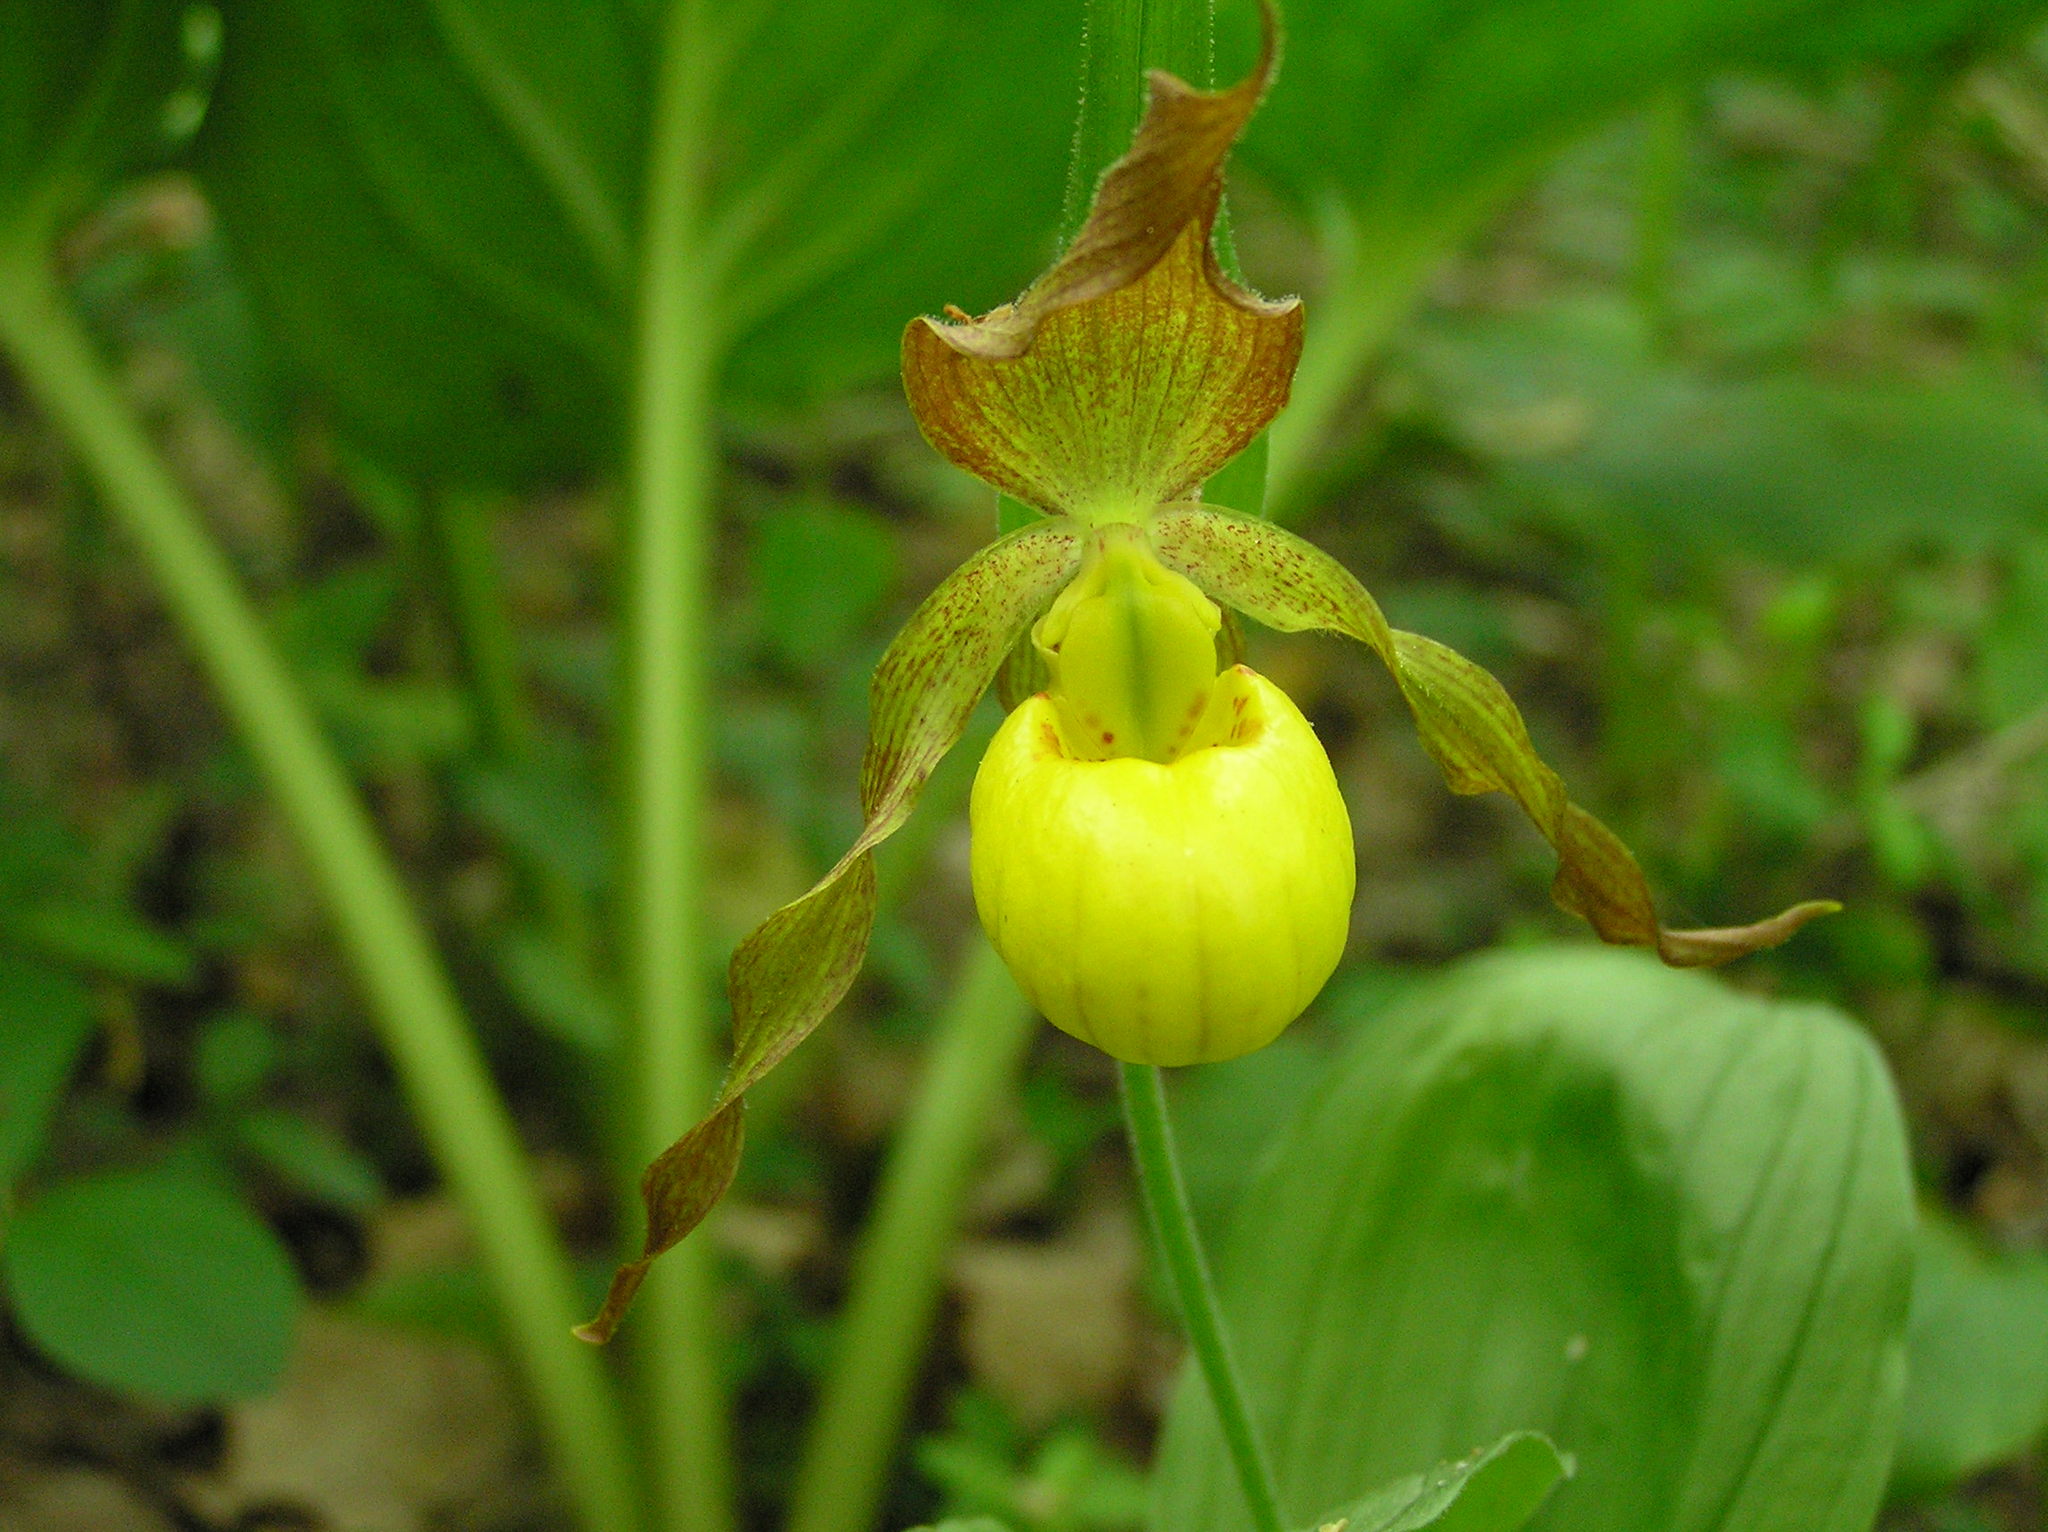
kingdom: Plantae
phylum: Tracheophyta
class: Liliopsida
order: Asparagales
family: Orchidaceae
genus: Cypripedium
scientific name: Cypripedium parviflorum
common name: American yellow lady's-slipper
